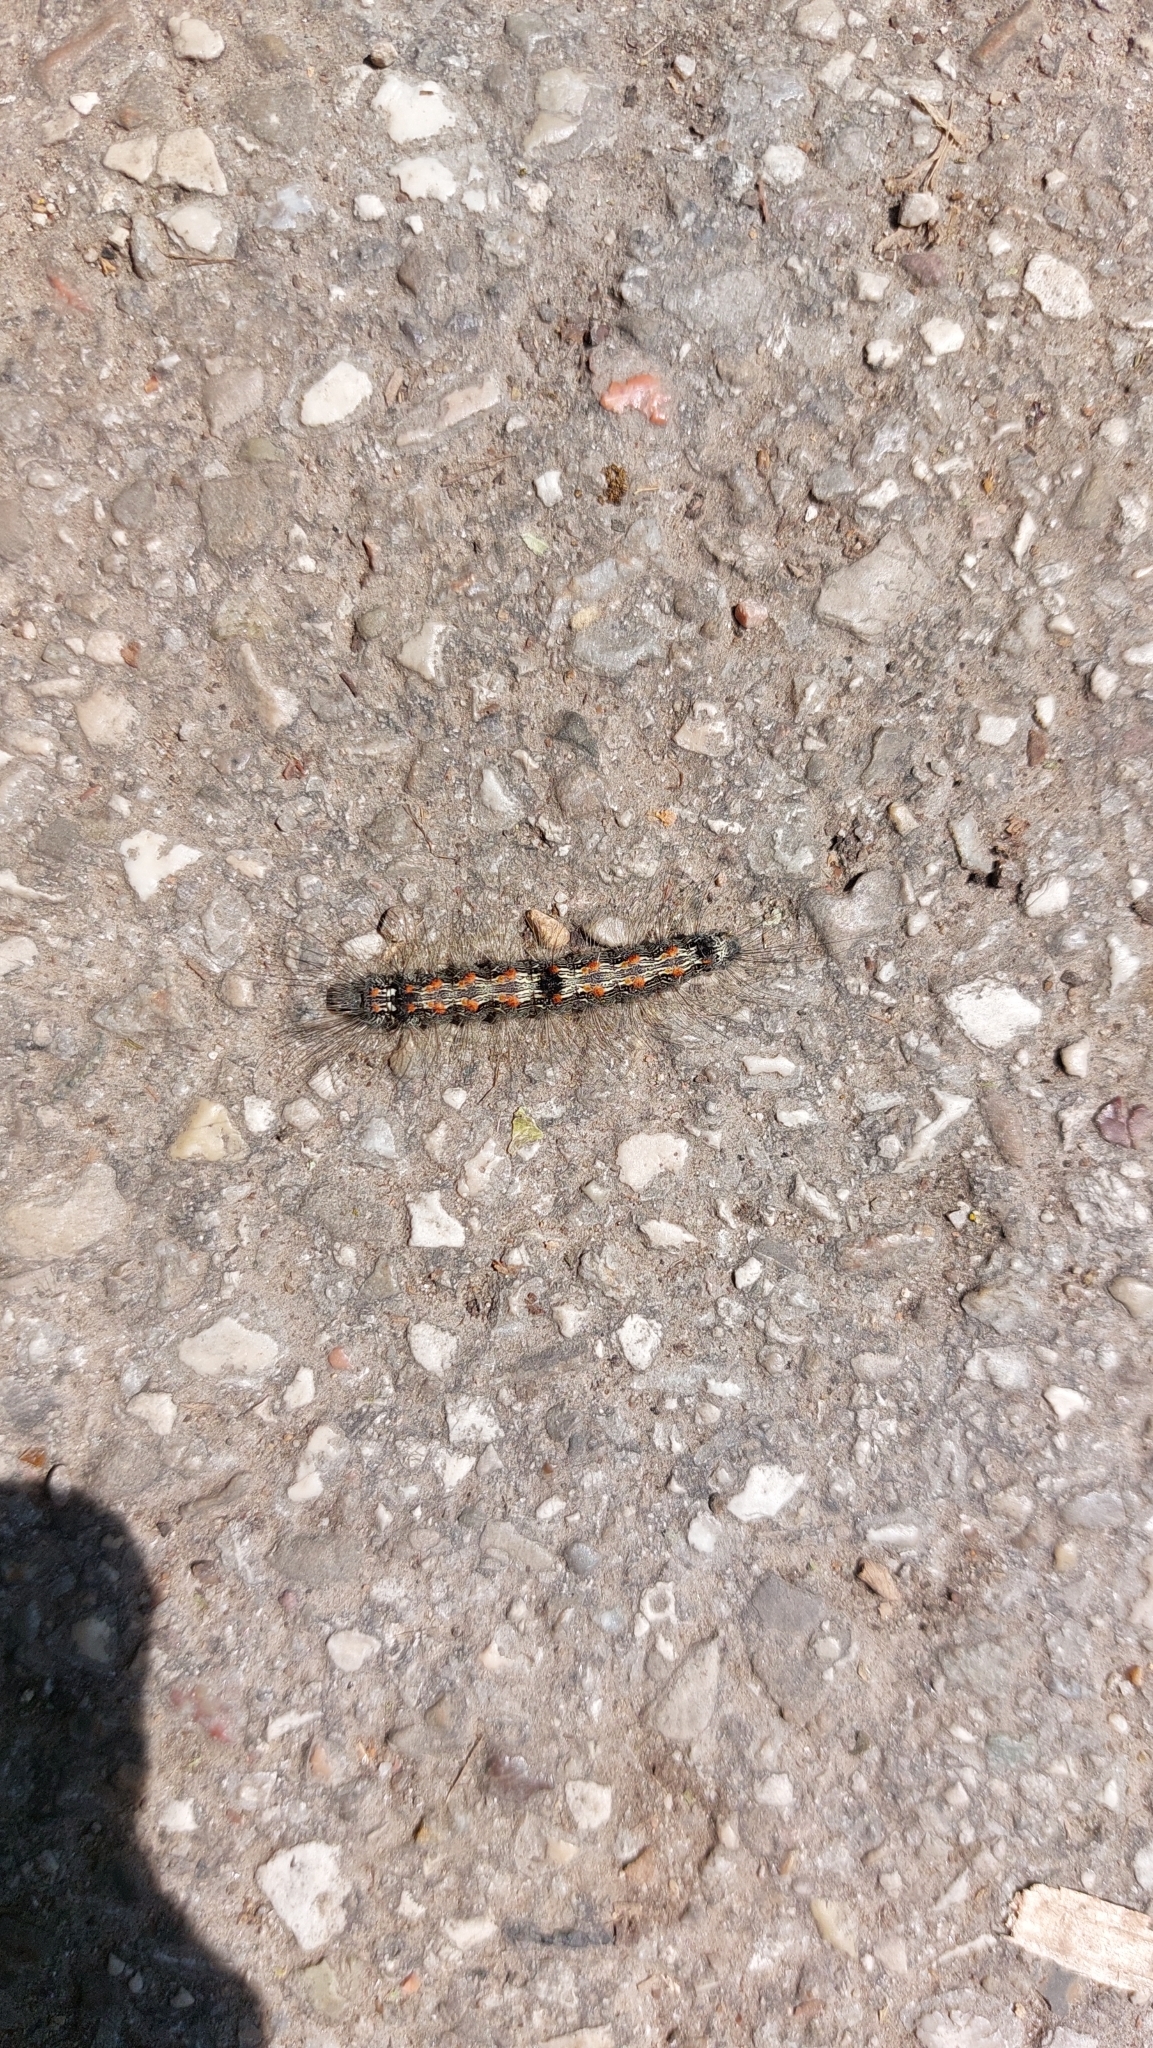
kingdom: Animalia
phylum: Arthropoda
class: Insecta
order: Lepidoptera
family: Erebidae
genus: Lithosia
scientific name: Lithosia quadra
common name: Four-spotted footman
